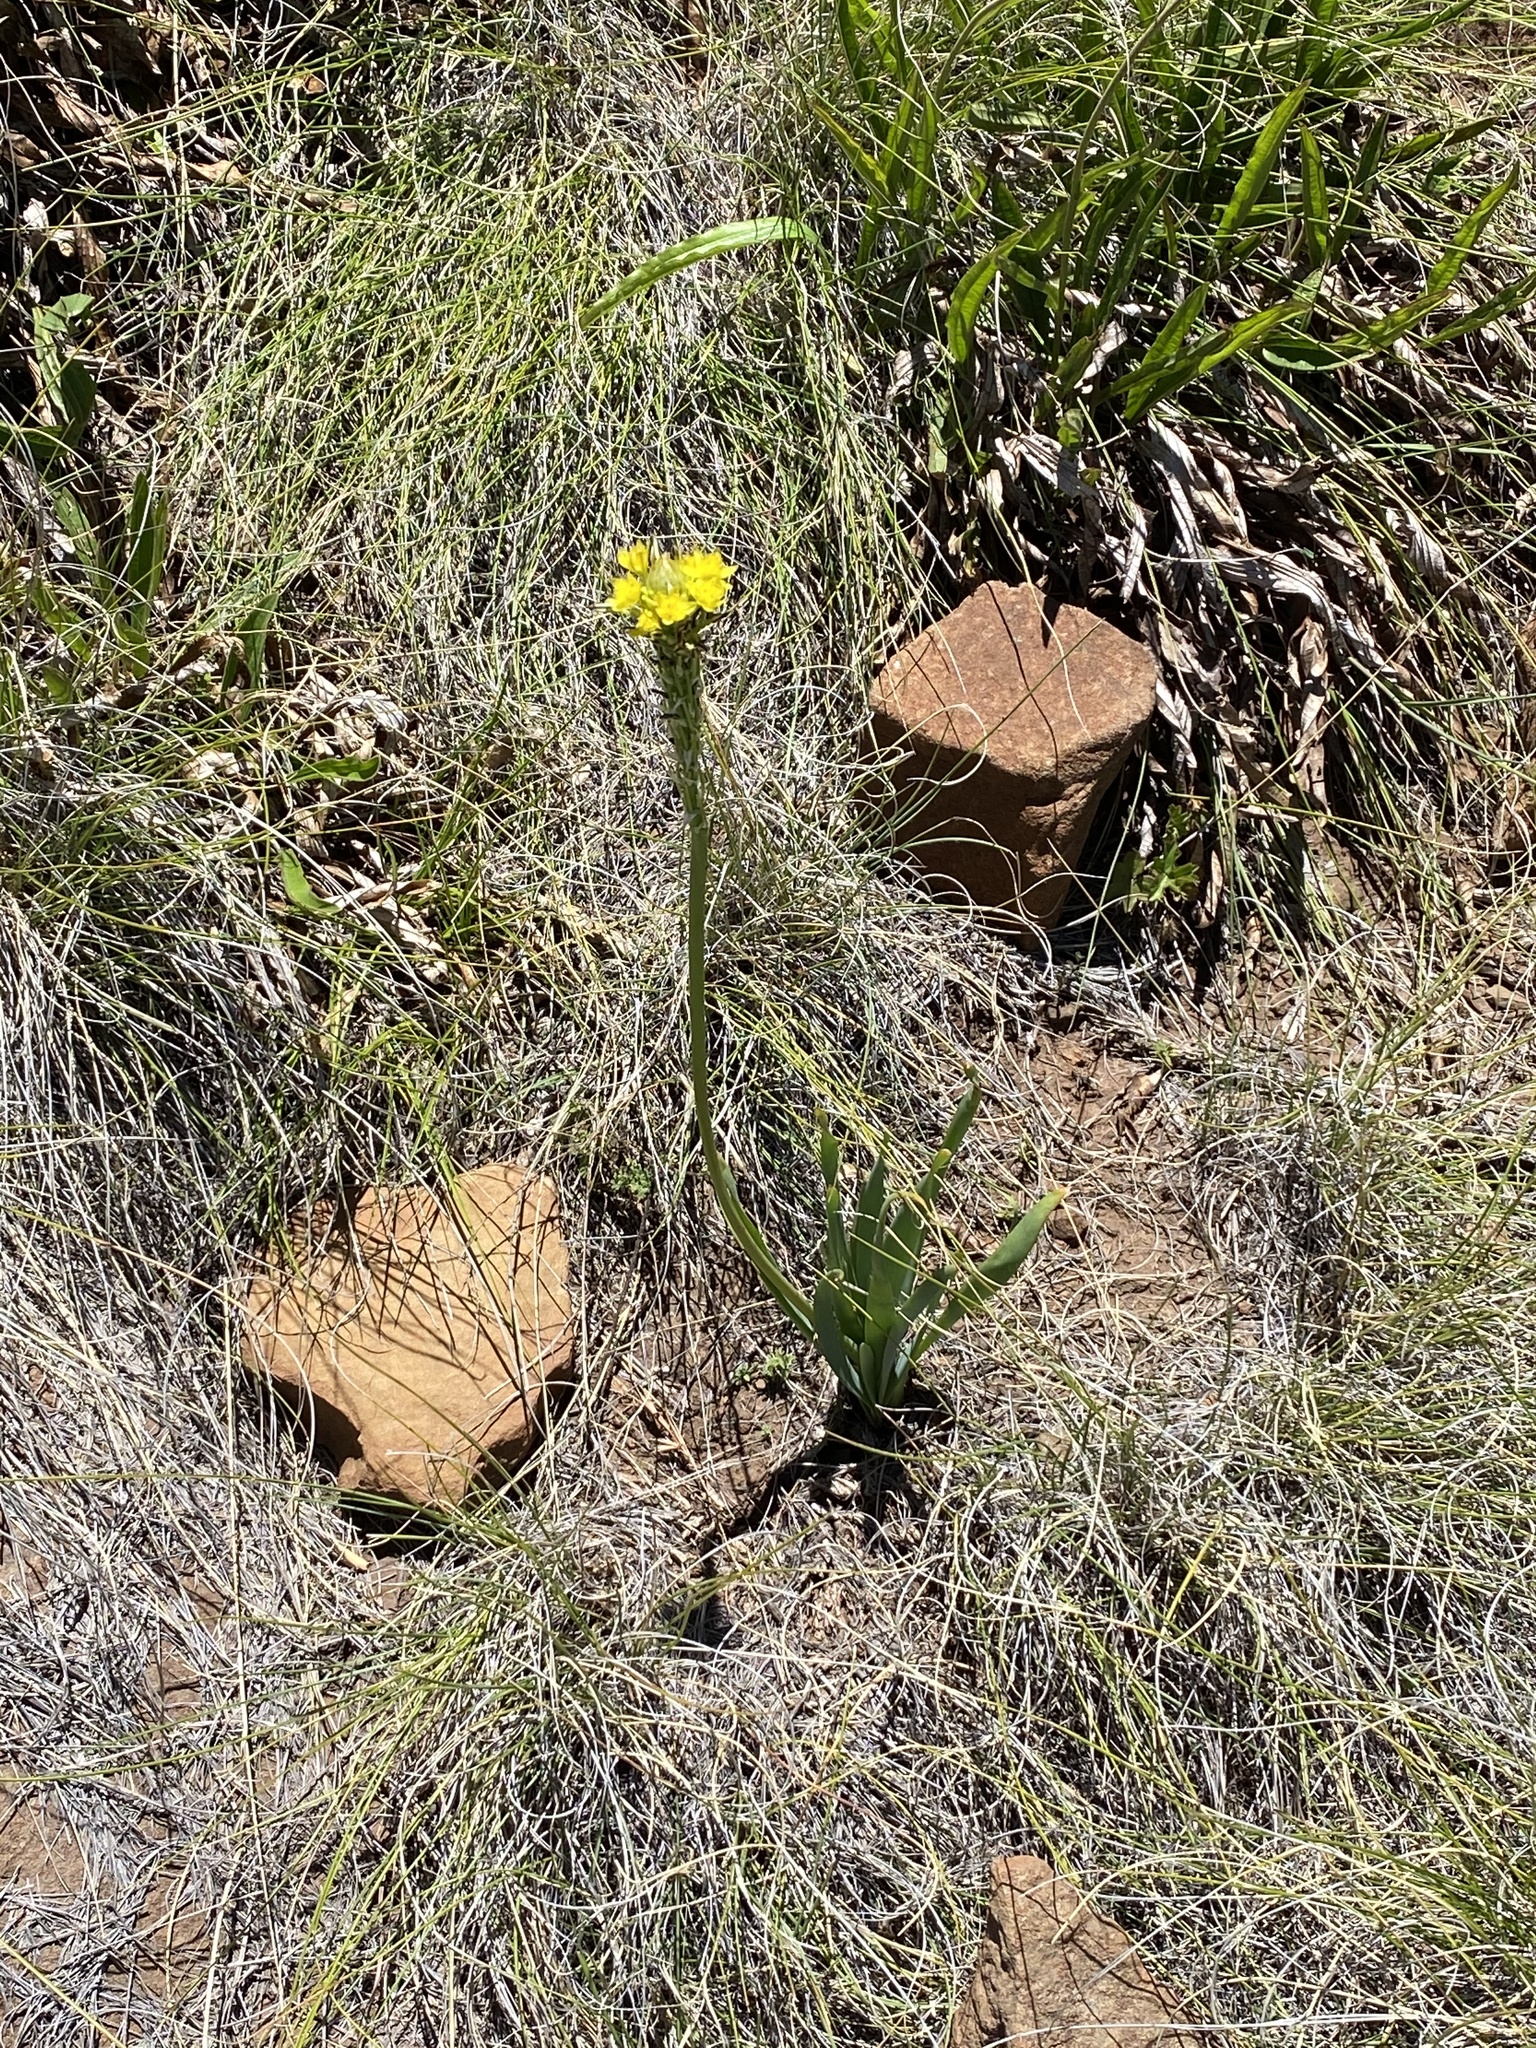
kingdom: Plantae
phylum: Tracheophyta
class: Liliopsida
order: Asparagales
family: Asphodelaceae
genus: Bulbine
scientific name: Bulbine narcissifolia
